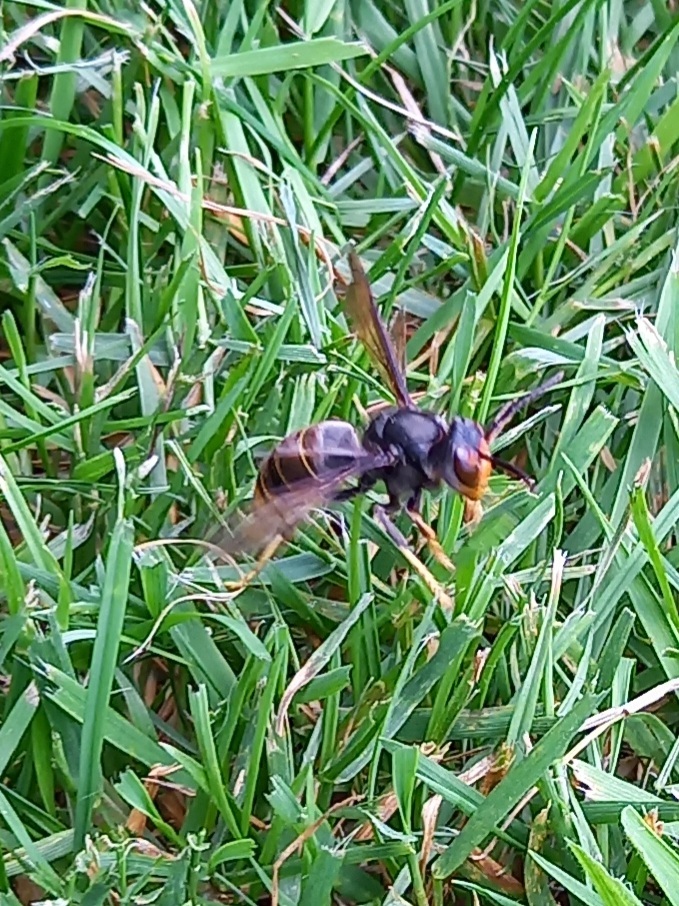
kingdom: Animalia
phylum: Arthropoda
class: Insecta
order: Hymenoptera
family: Vespidae
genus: Vespa
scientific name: Vespa velutina
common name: Asian hornet
